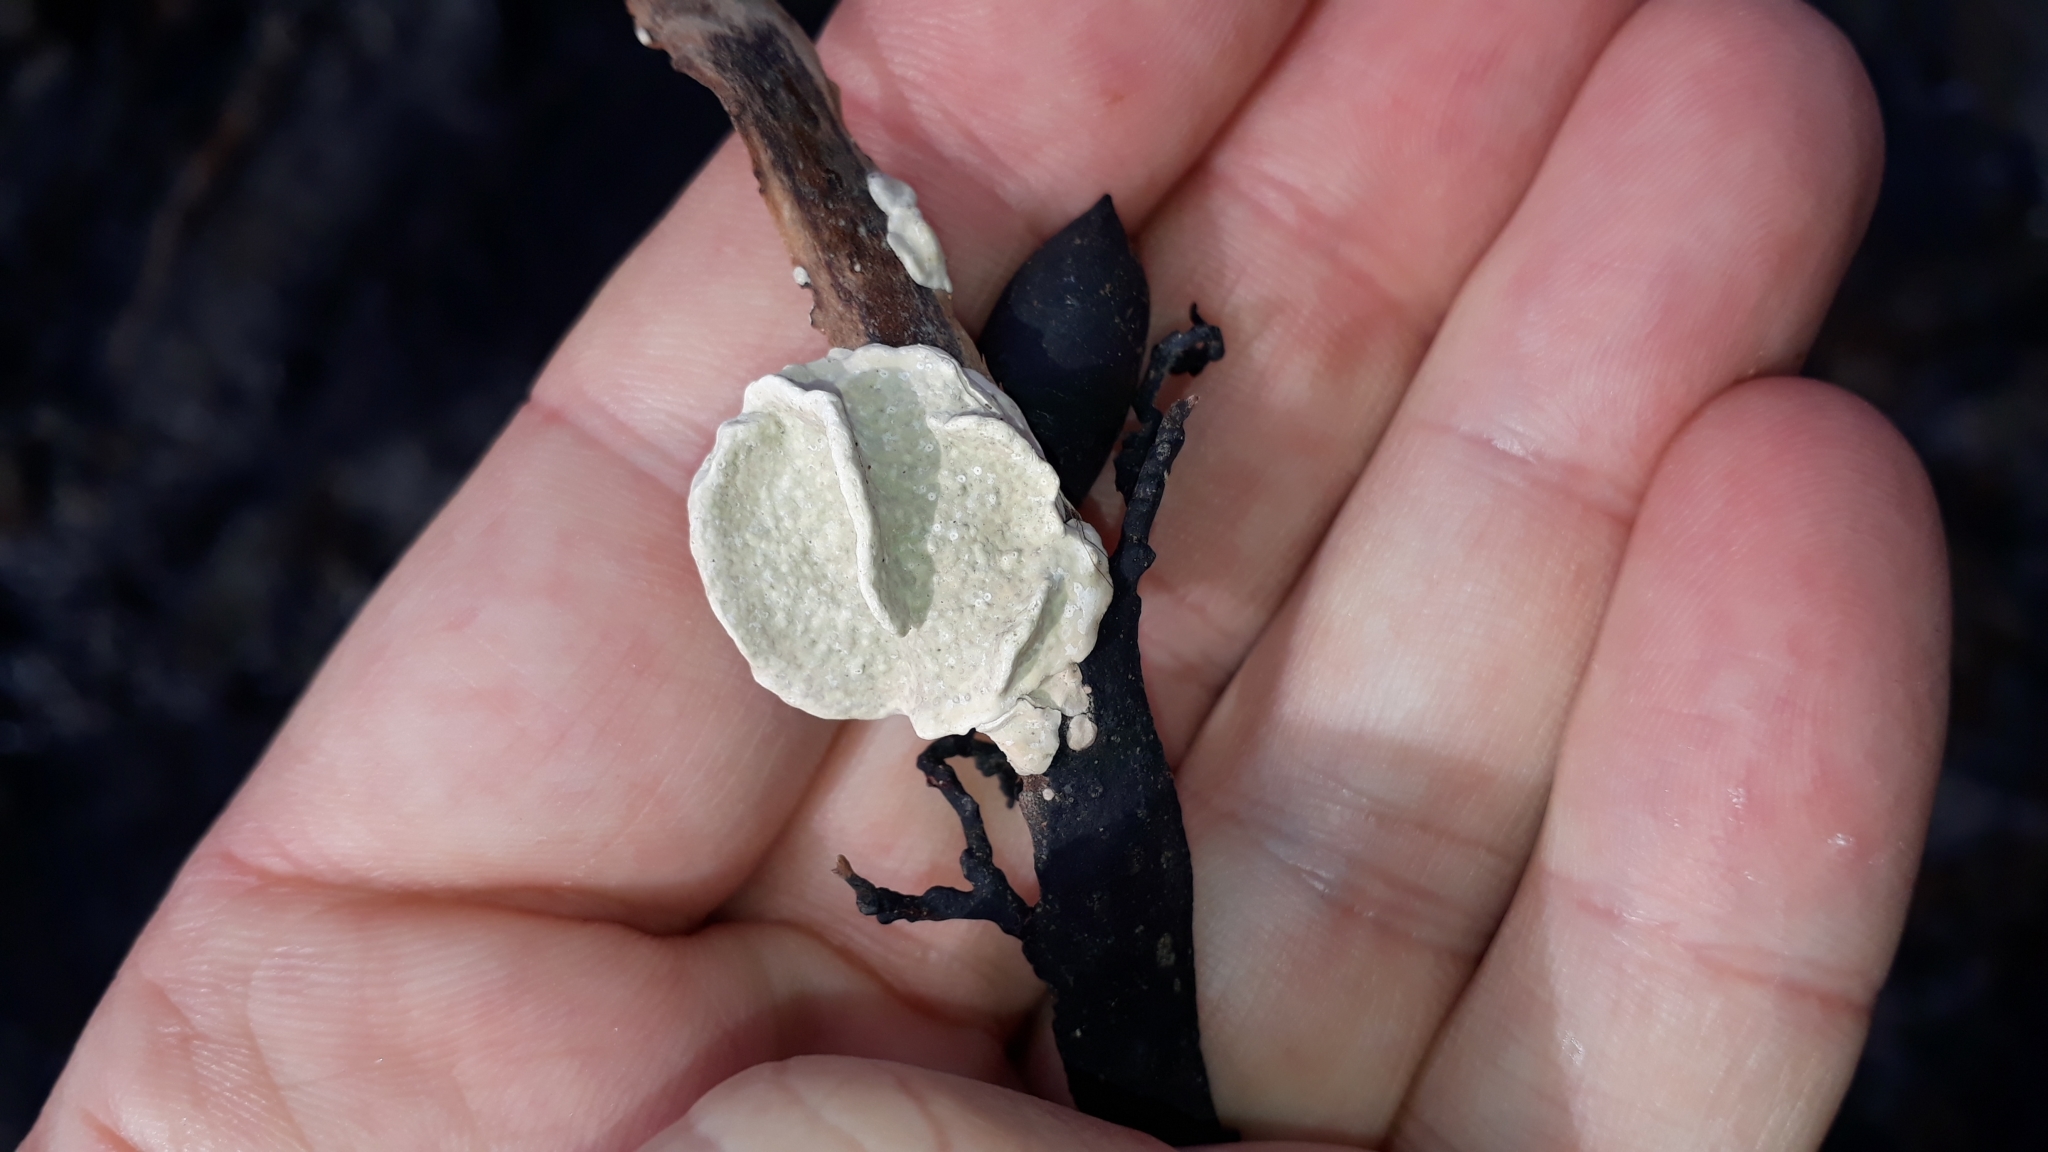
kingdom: Plantae
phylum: Rhodophyta
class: Florideophyceae
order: Corallinales
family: Lithophyllaceae
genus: Lithophyllum
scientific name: Lithophyllum carpophylli
